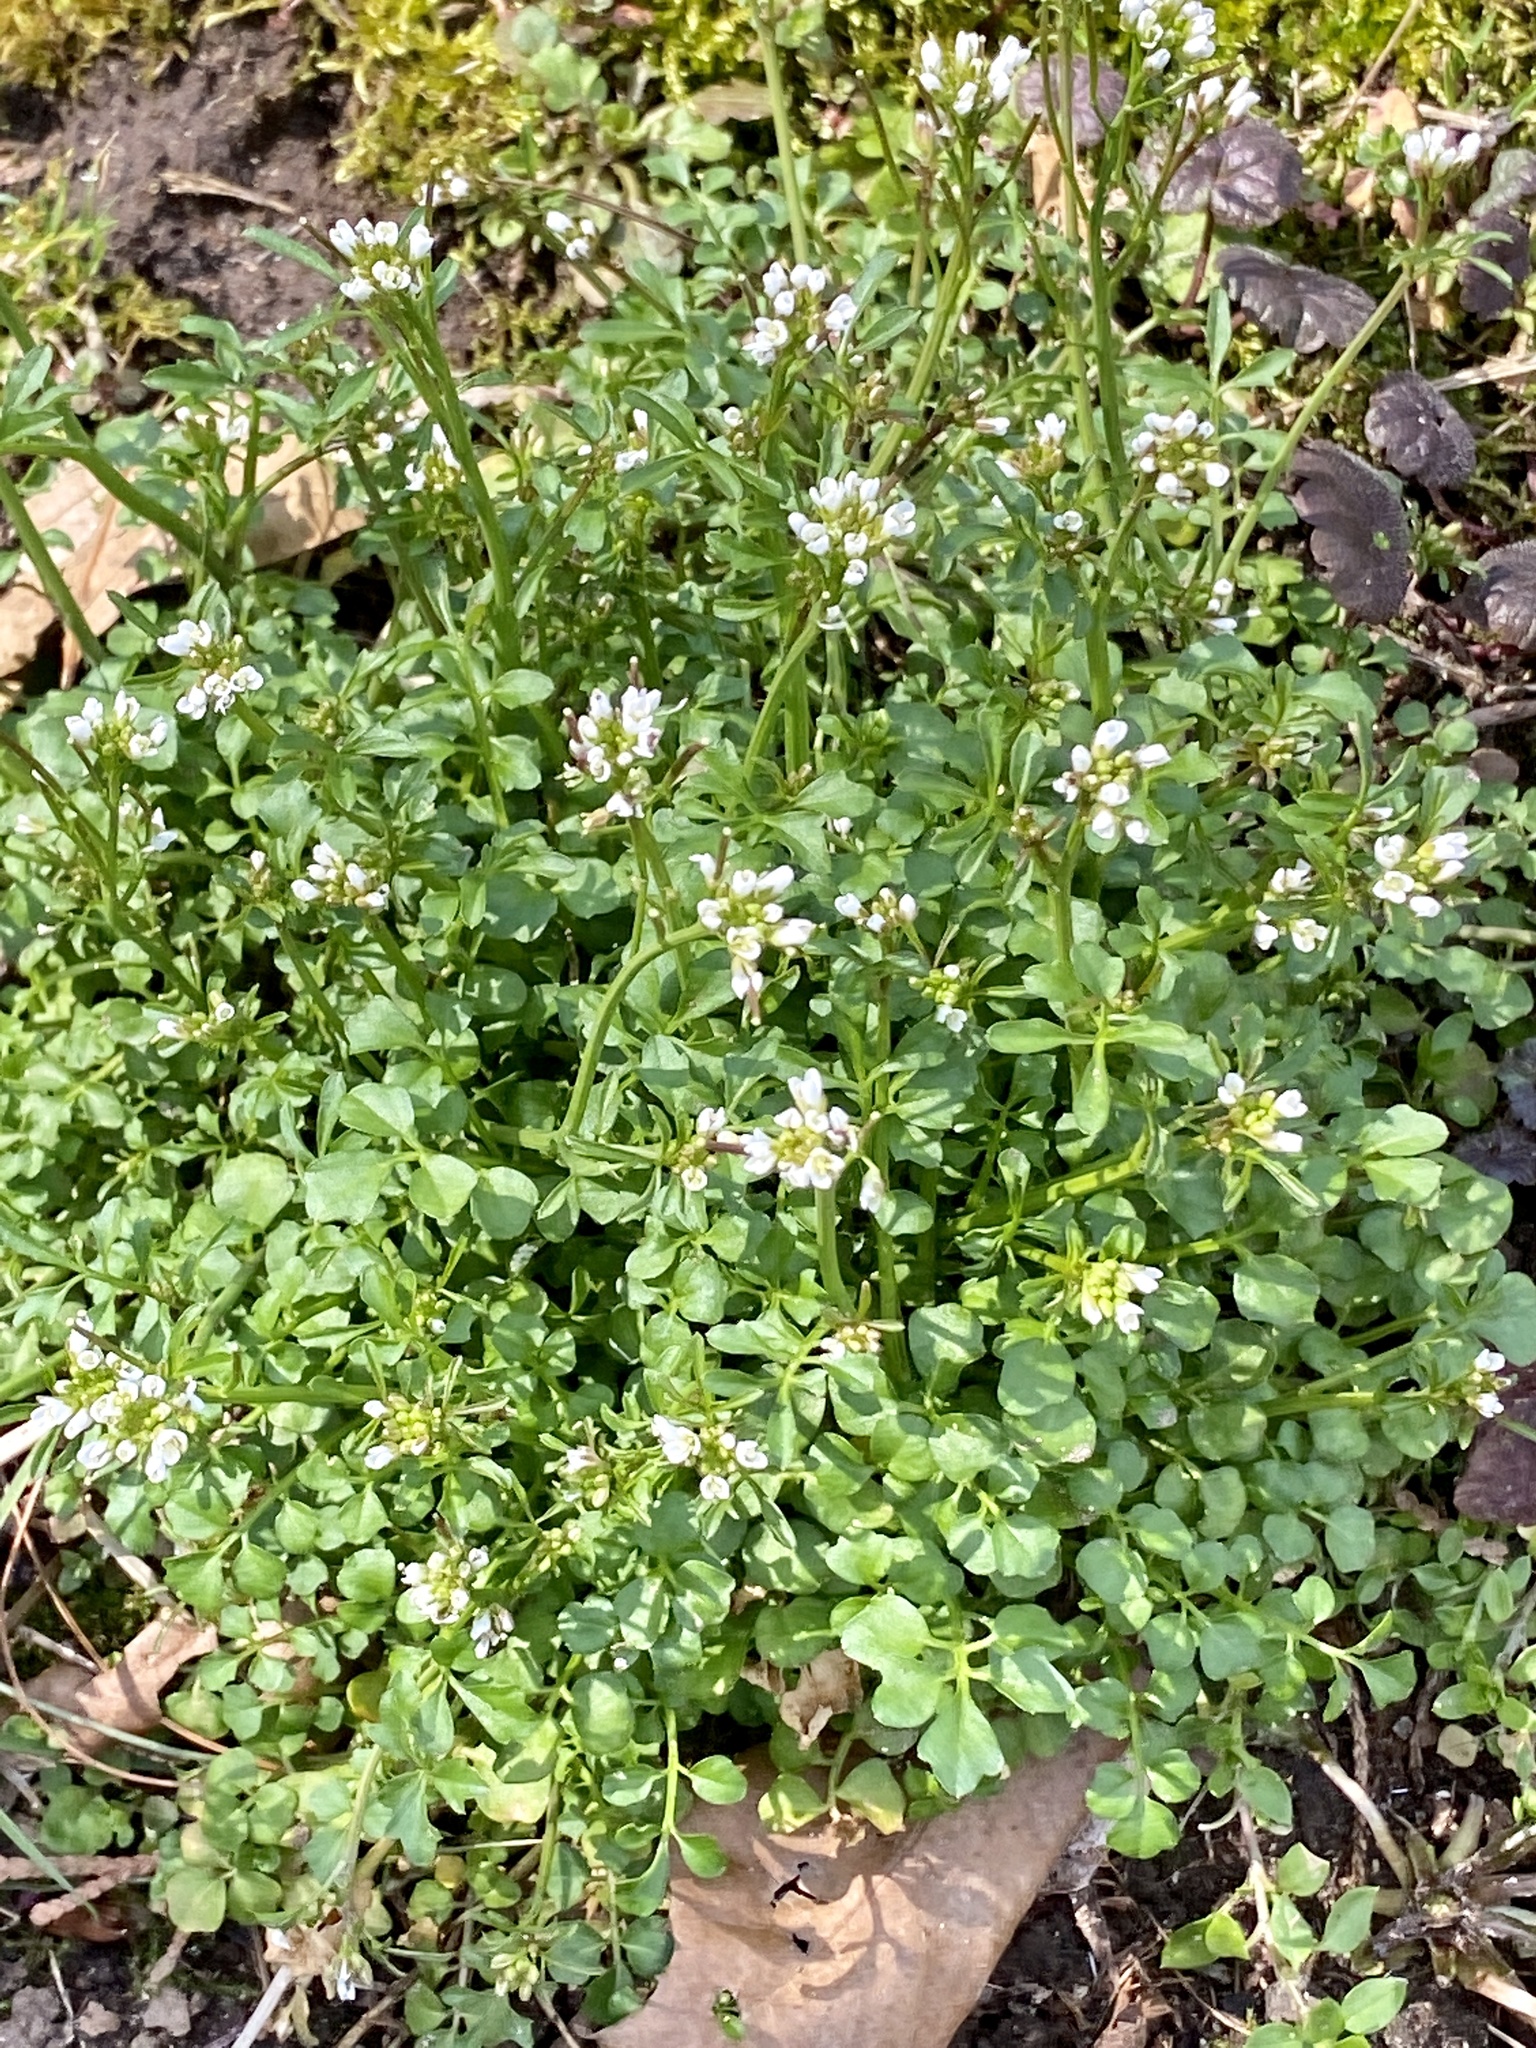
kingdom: Plantae
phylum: Tracheophyta
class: Magnoliopsida
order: Brassicales
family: Brassicaceae
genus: Cardamine
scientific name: Cardamine hirsuta
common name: Hairy bittercress
